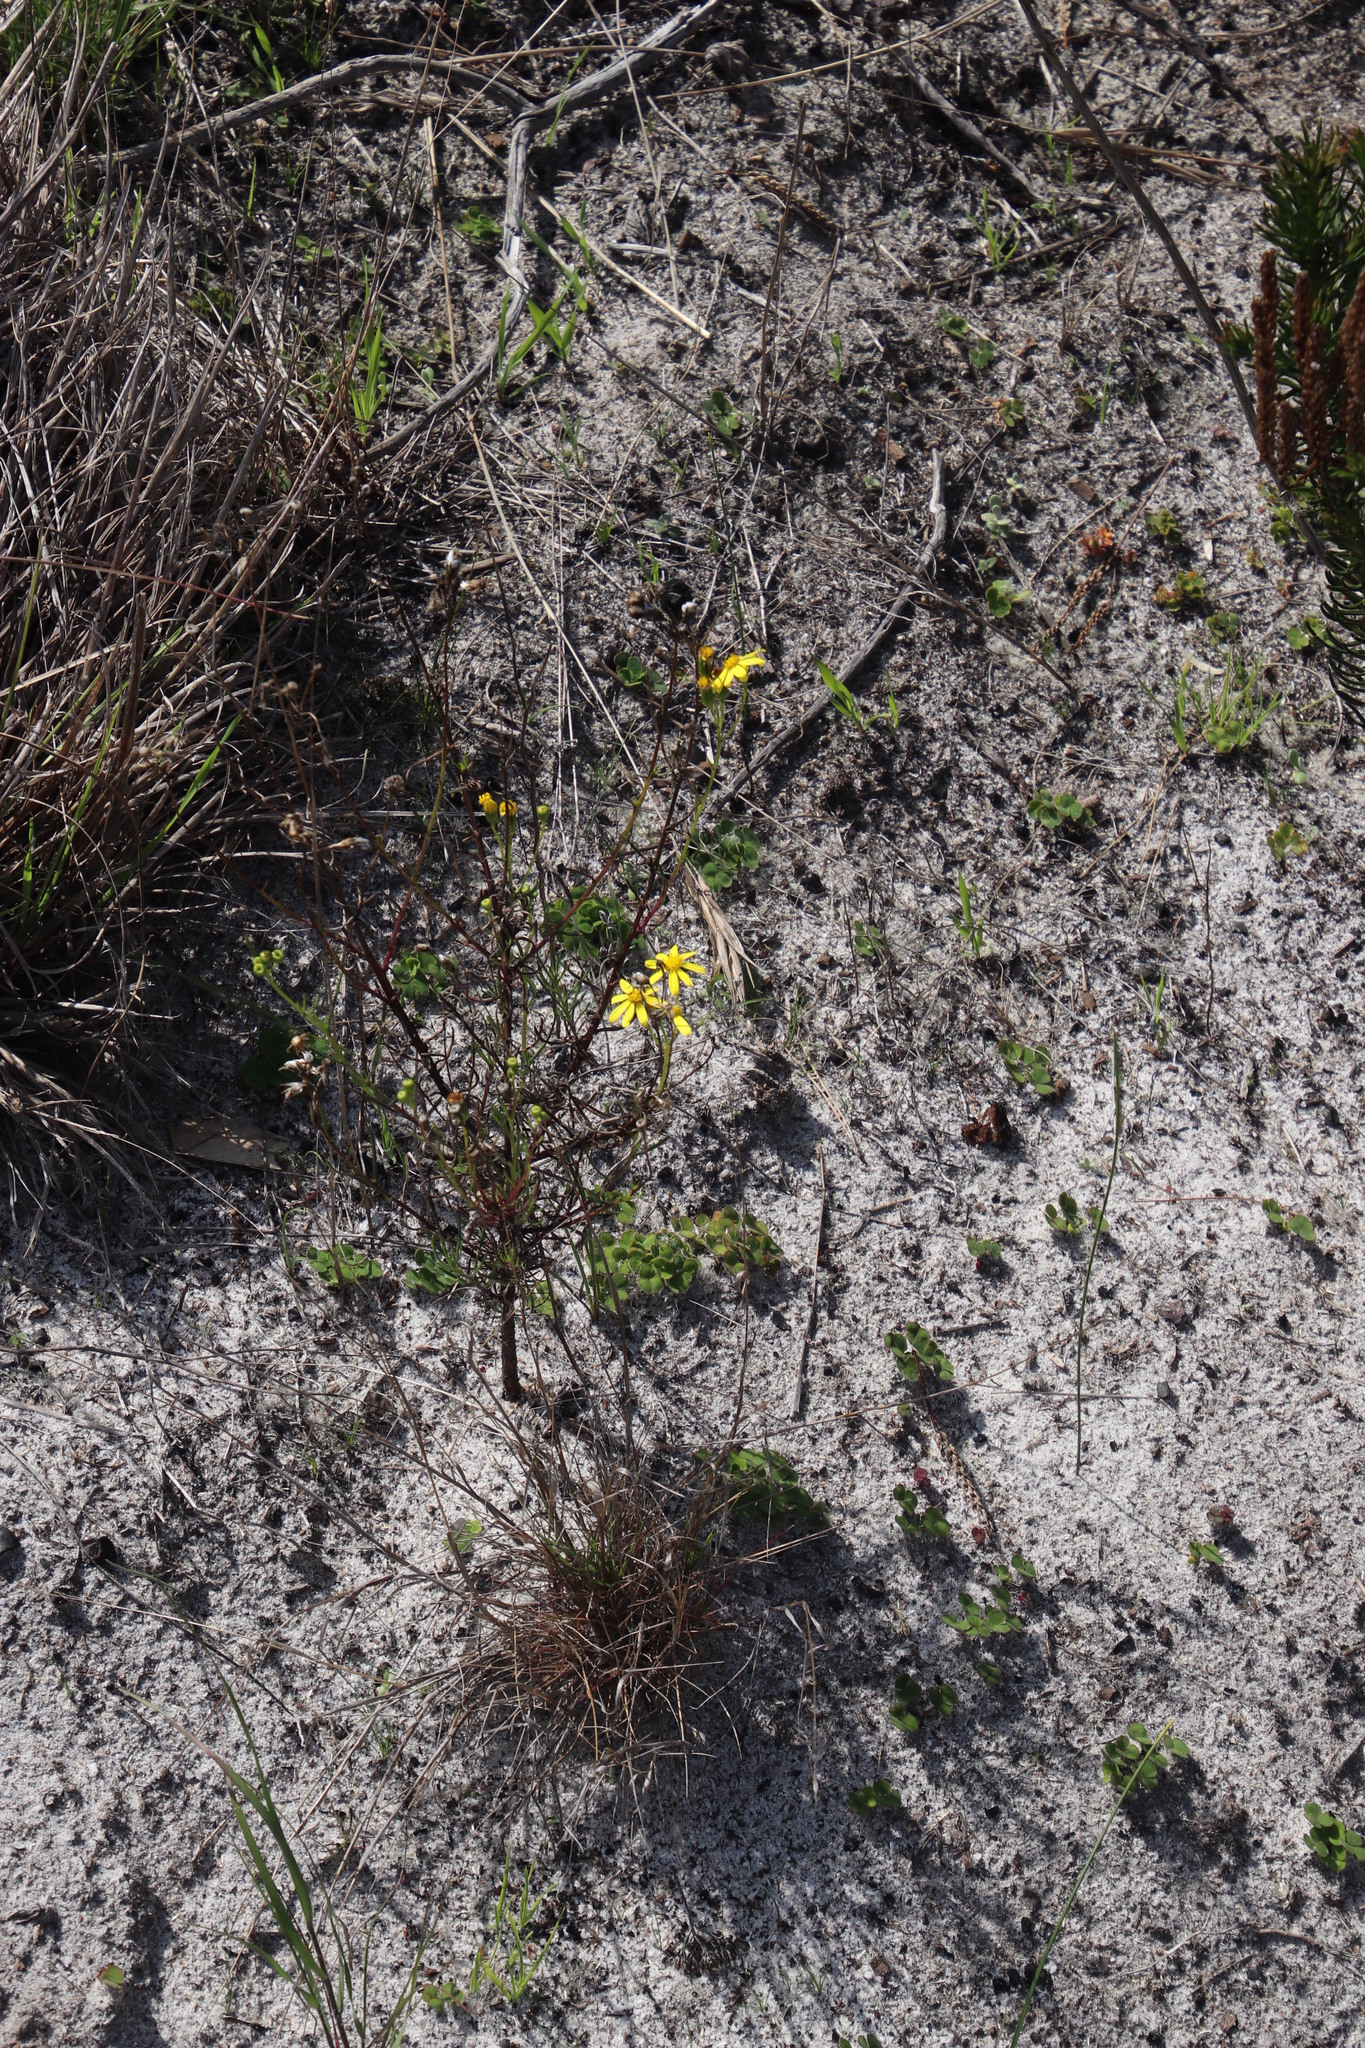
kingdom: Plantae
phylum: Tracheophyta
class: Magnoliopsida
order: Asterales
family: Asteraceae
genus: Senecio
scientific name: Senecio burchellii
